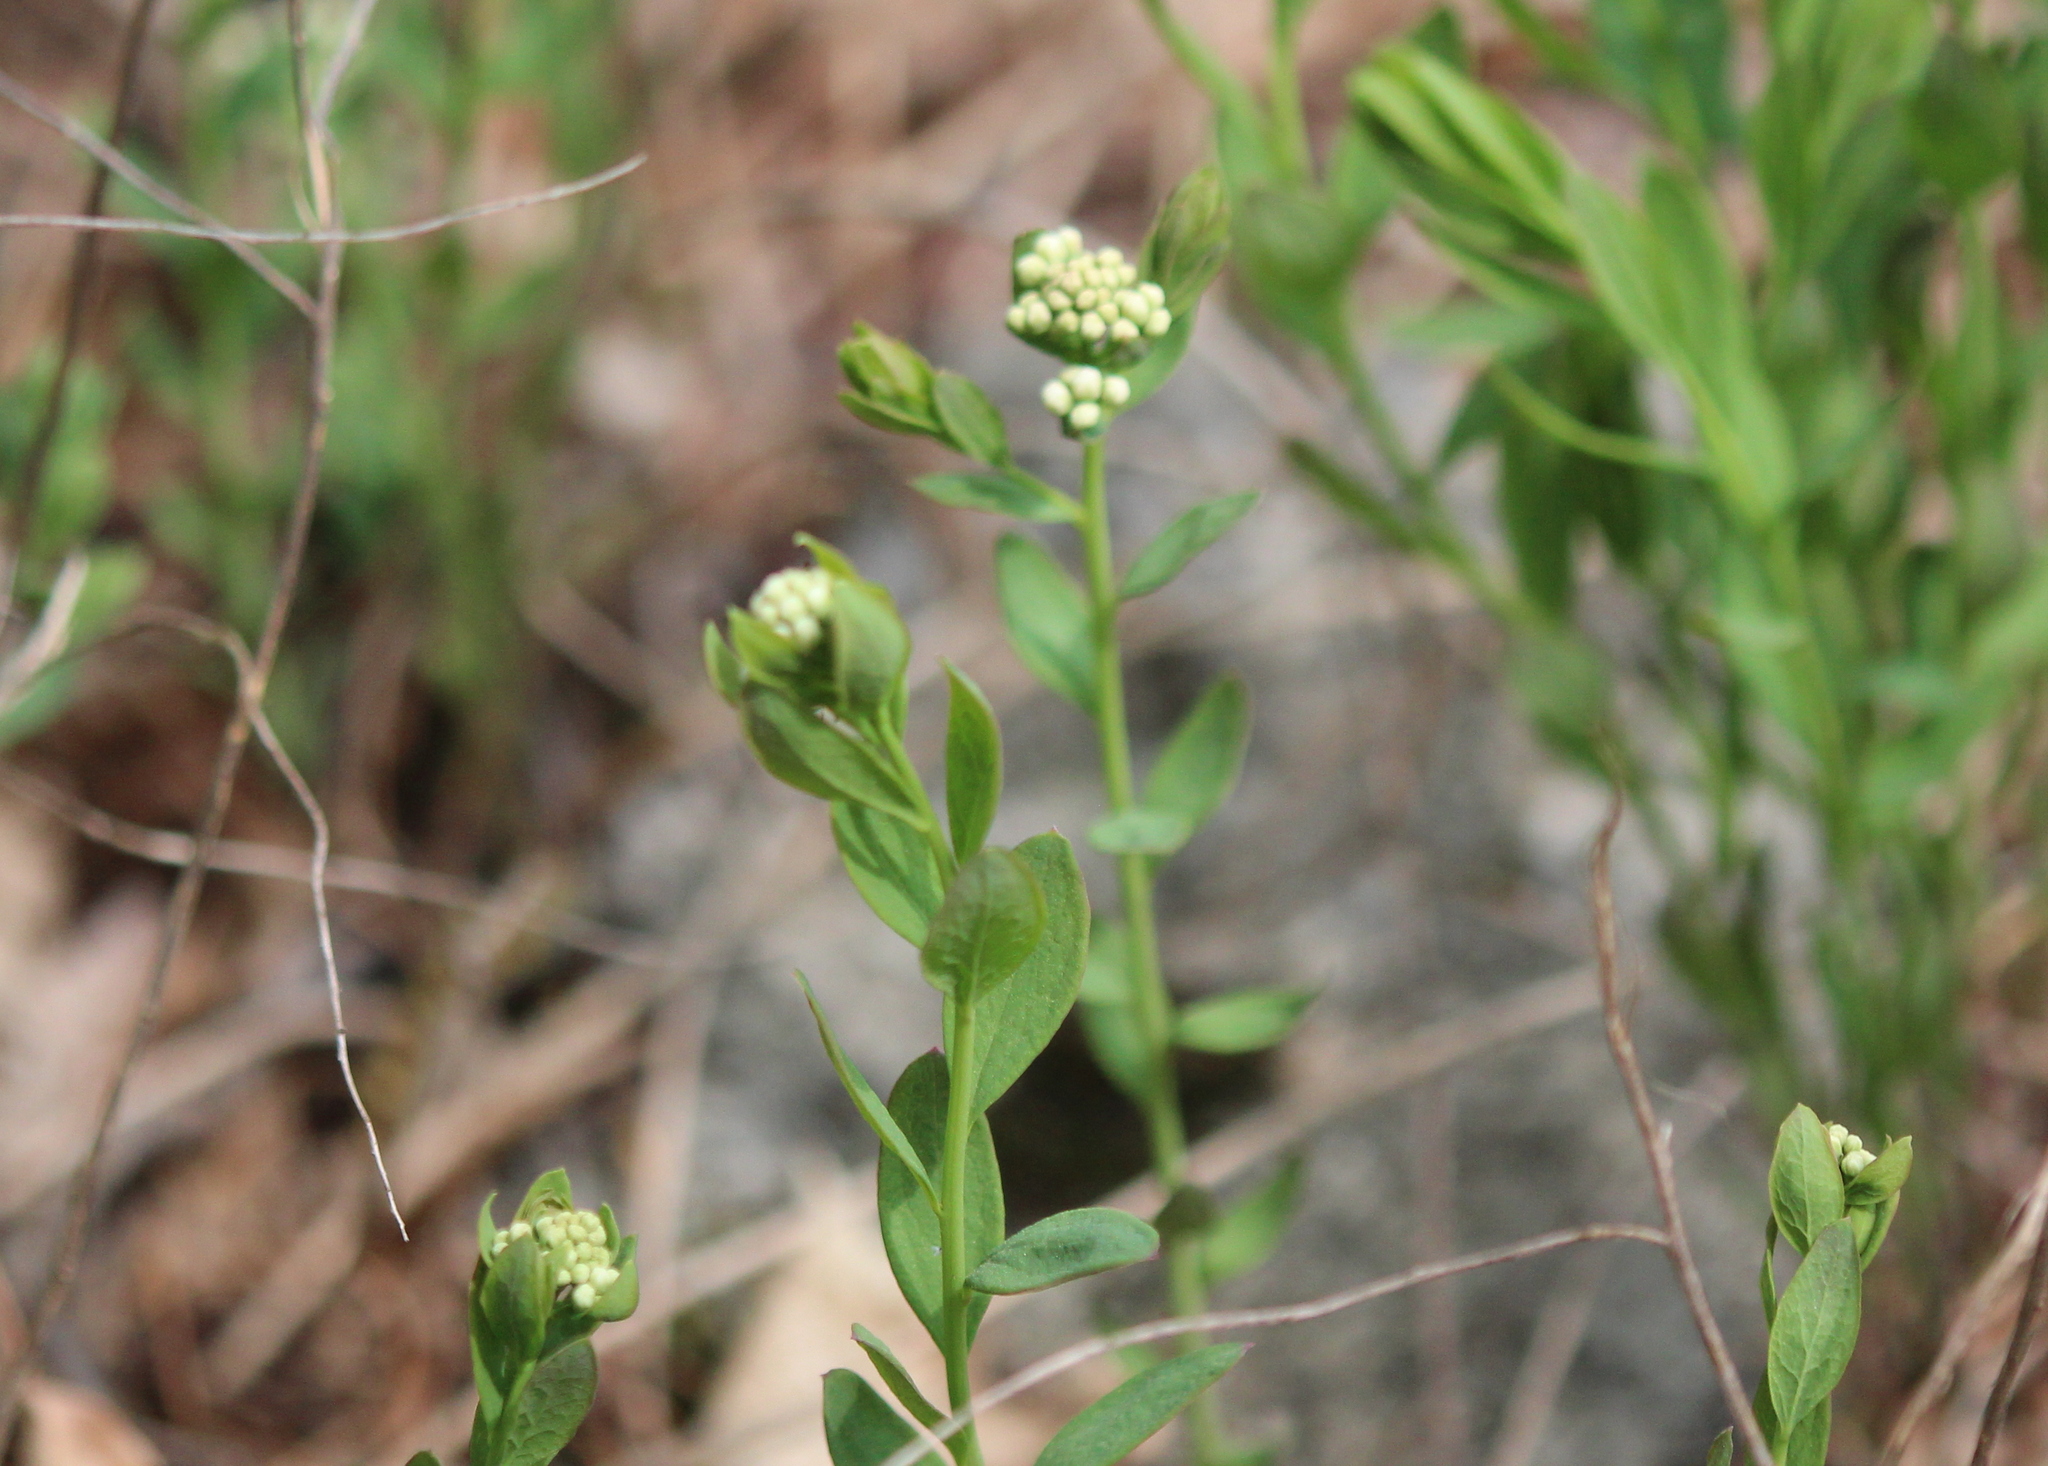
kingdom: Plantae
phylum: Tracheophyta
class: Magnoliopsida
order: Santalales
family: Comandraceae
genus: Comandra
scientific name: Comandra umbellata
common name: Bastard toadflax
